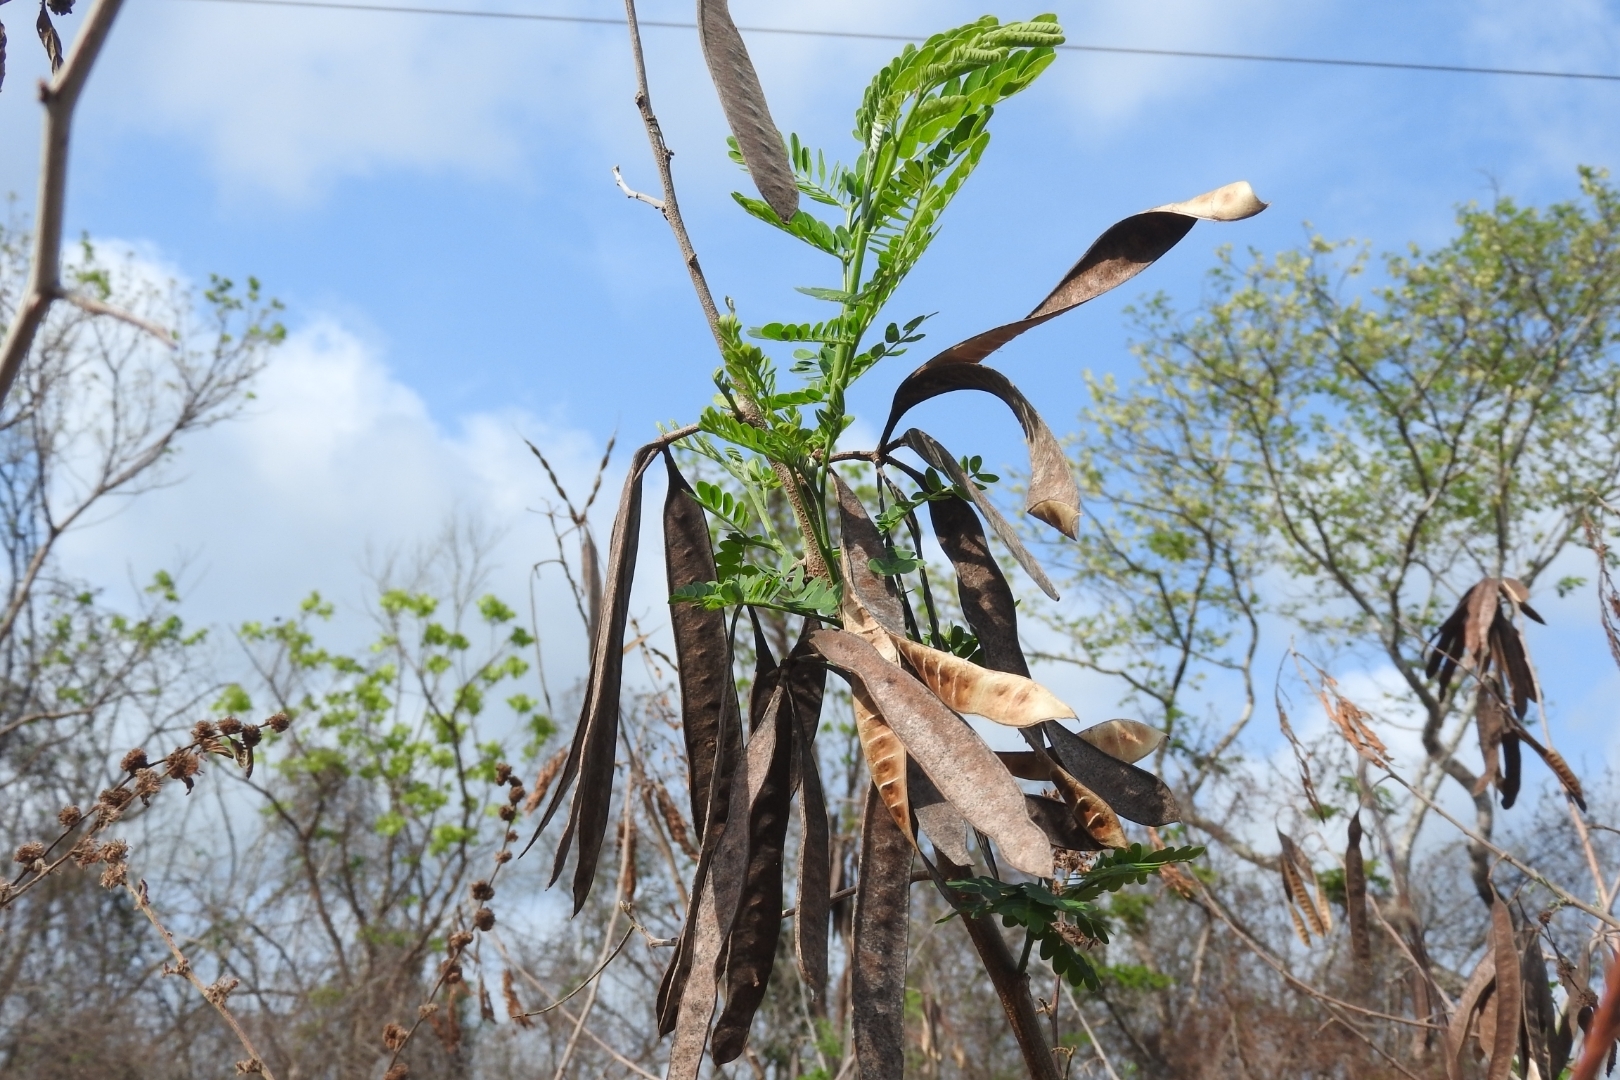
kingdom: Plantae
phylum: Tracheophyta
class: Magnoliopsida
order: Fabales
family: Fabaceae
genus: Leucaena
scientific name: Leucaena leucocephala
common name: White leadtree
